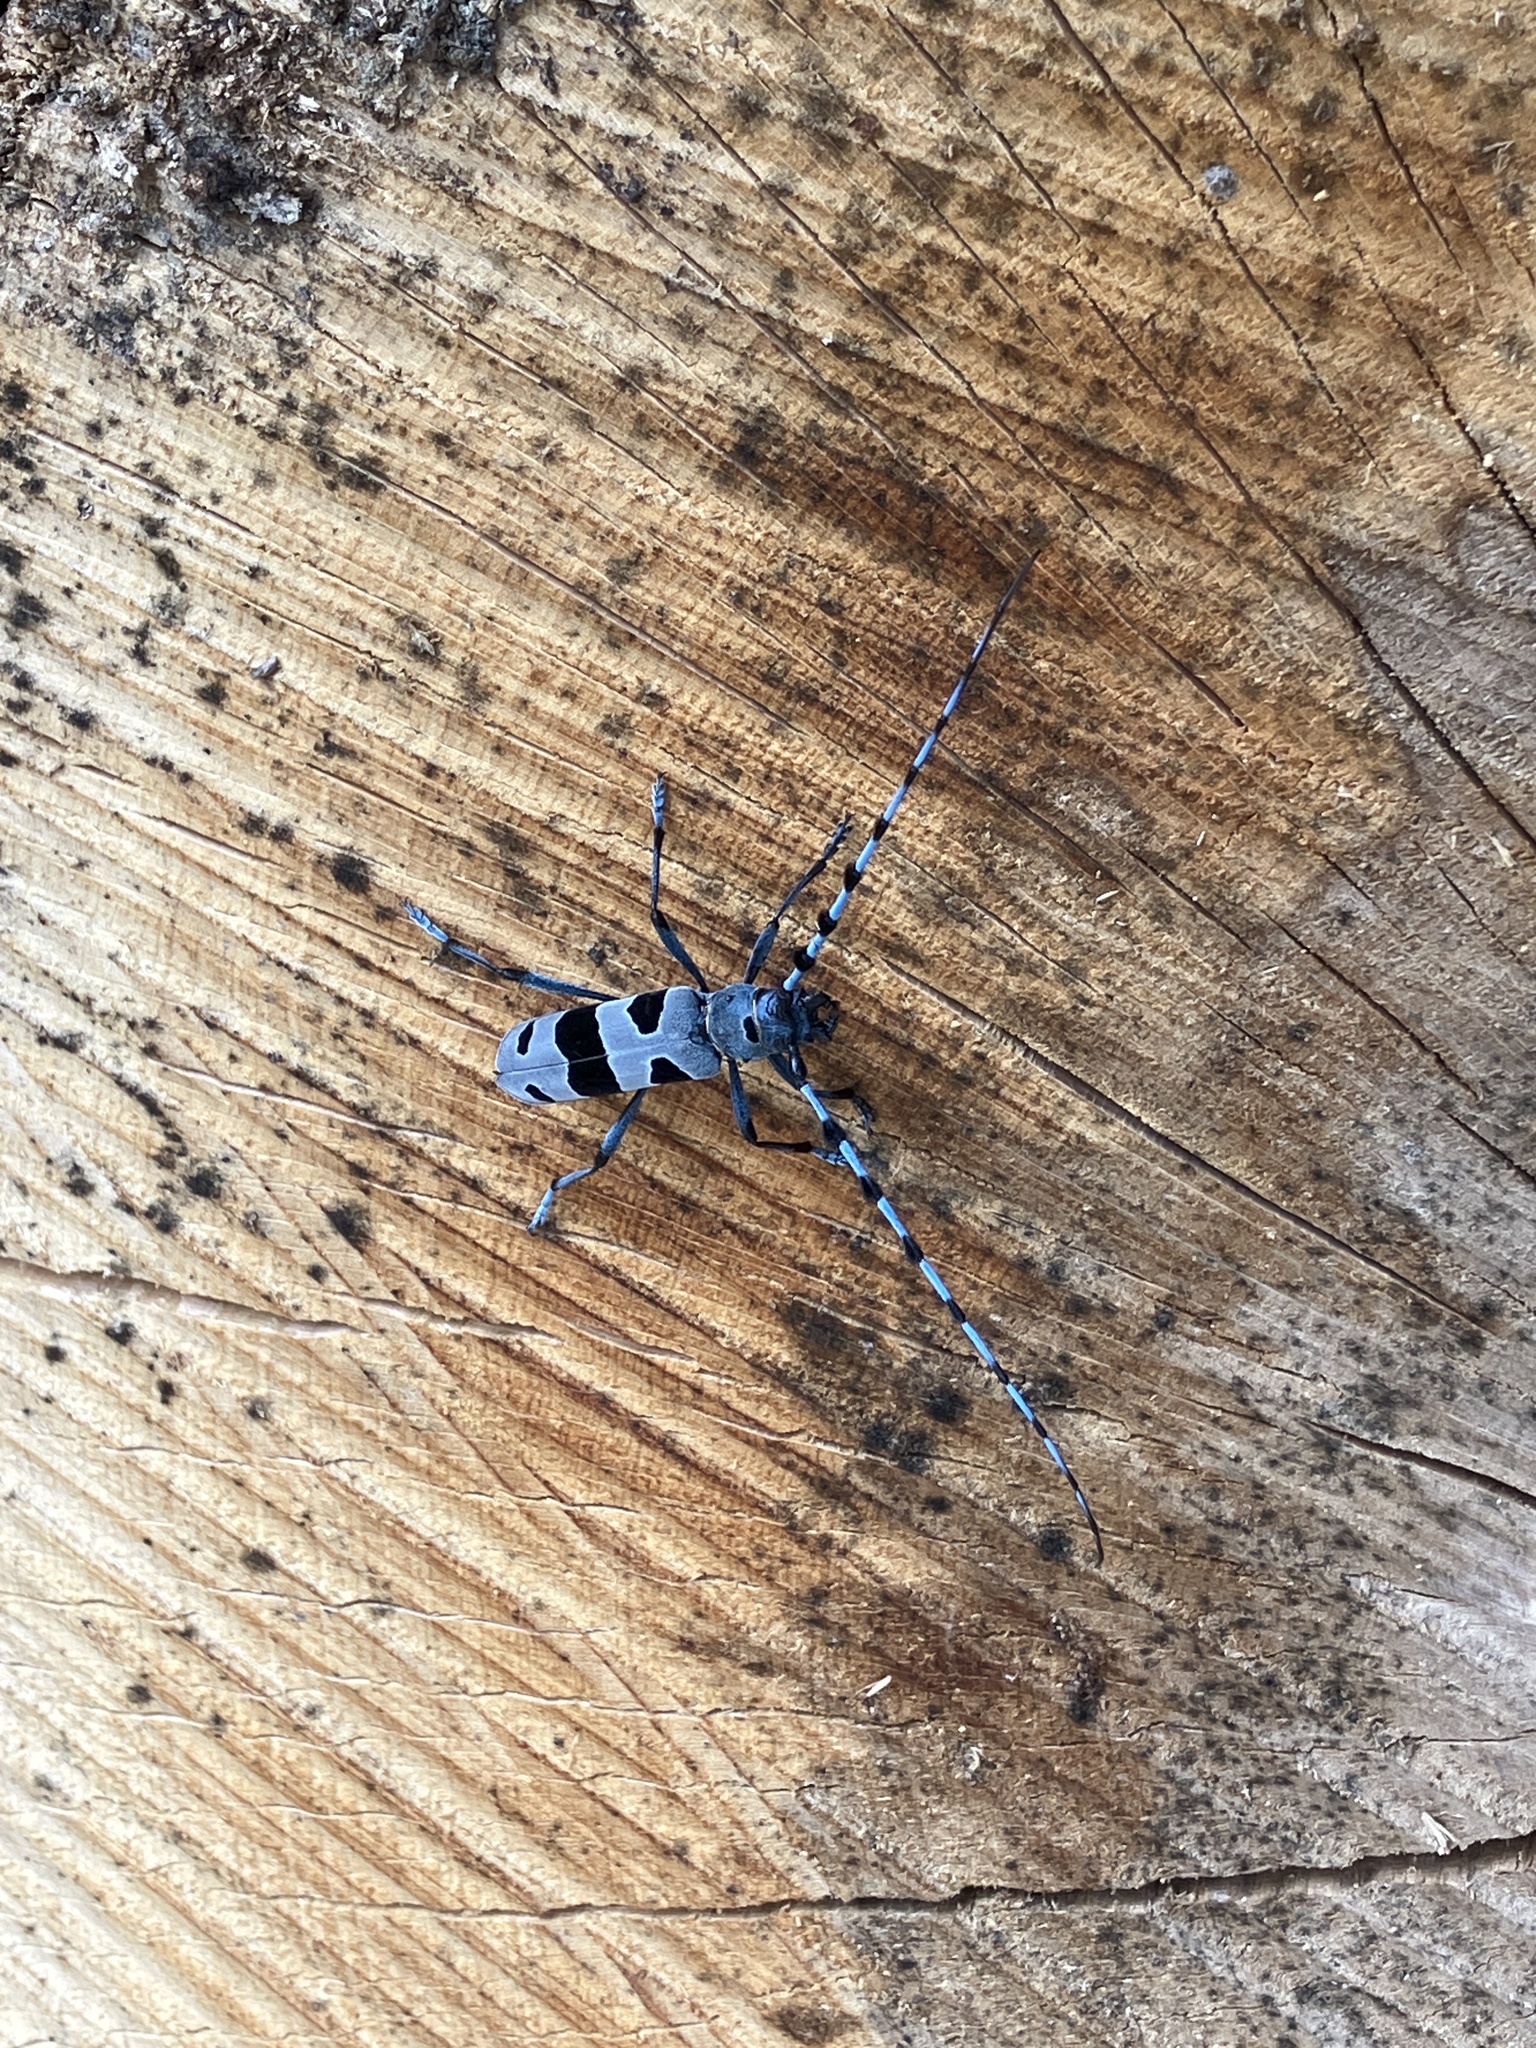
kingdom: Animalia
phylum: Arthropoda
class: Insecta
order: Coleoptera
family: Cerambycidae
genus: Rosalia
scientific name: Rosalia alpina
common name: Rosalia longicorn
